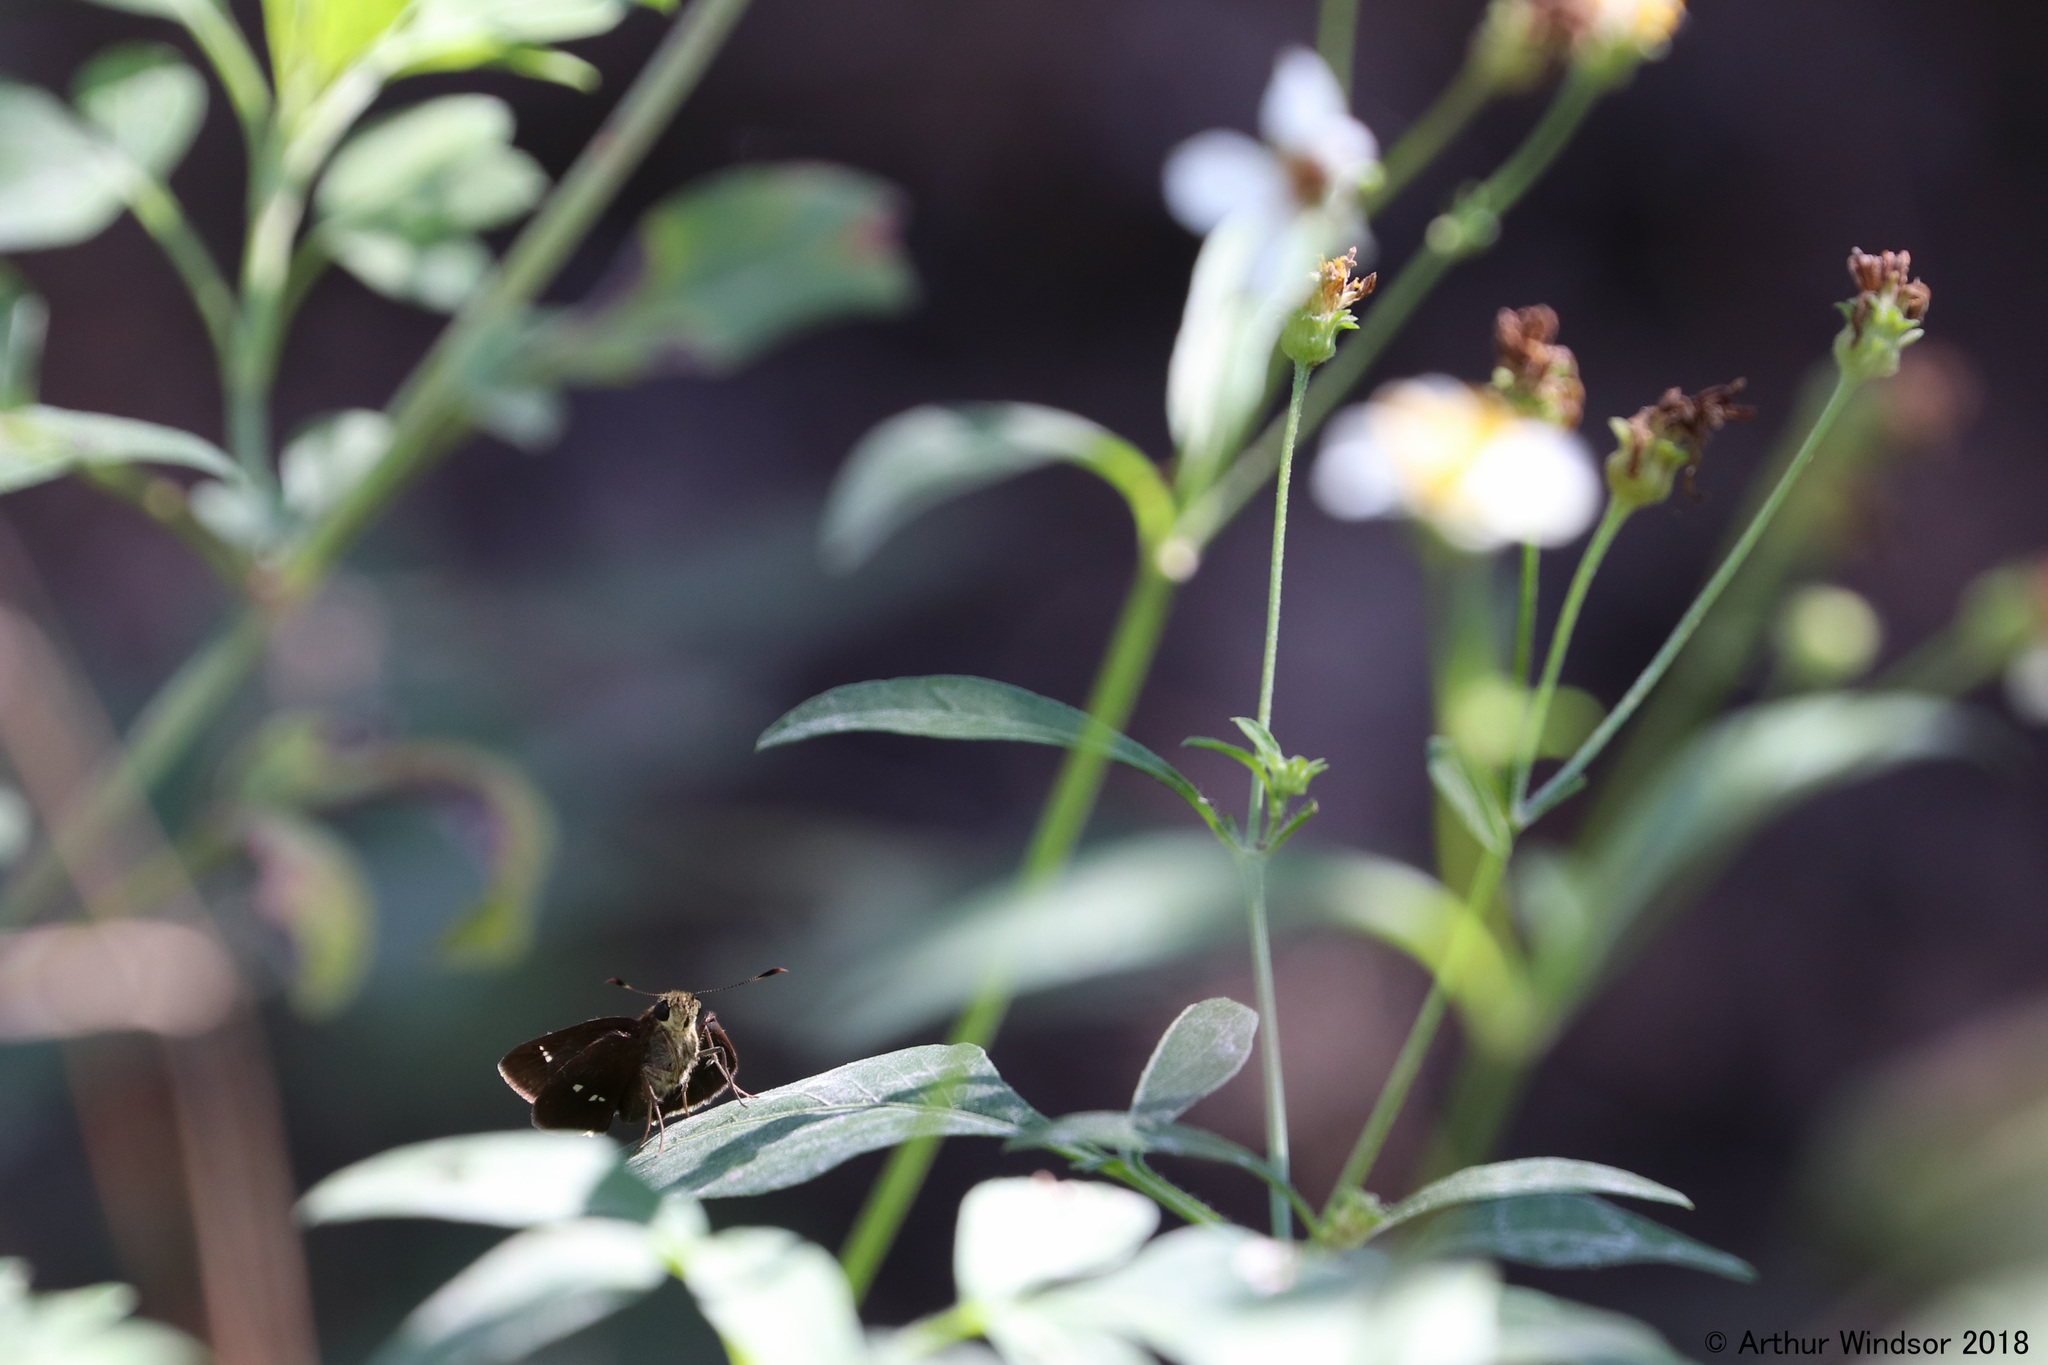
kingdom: Animalia
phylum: Arthropoda
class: Insecta
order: Lepidoptera
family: Hesperiidae
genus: Oligoria
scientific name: Oligoria maculata
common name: Twin-spot skipper
